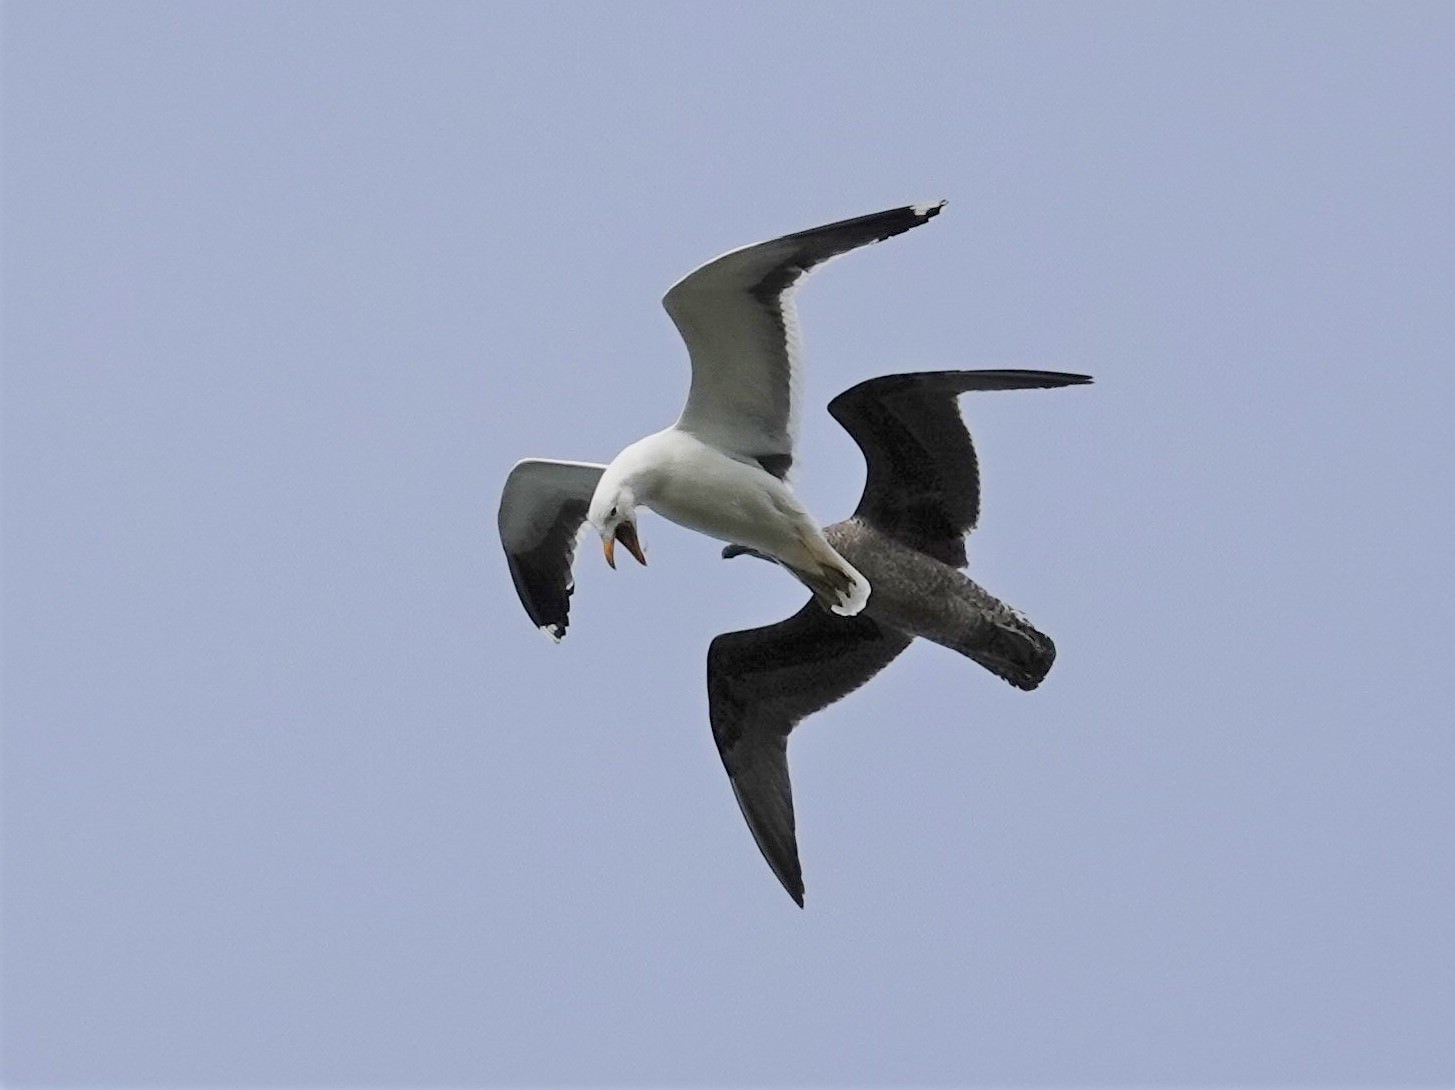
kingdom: Animalia
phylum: Chordata
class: Aves
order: Charadriiformes
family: Laridae
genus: Larus
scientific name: Larus dominicanus
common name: Kelp gull
